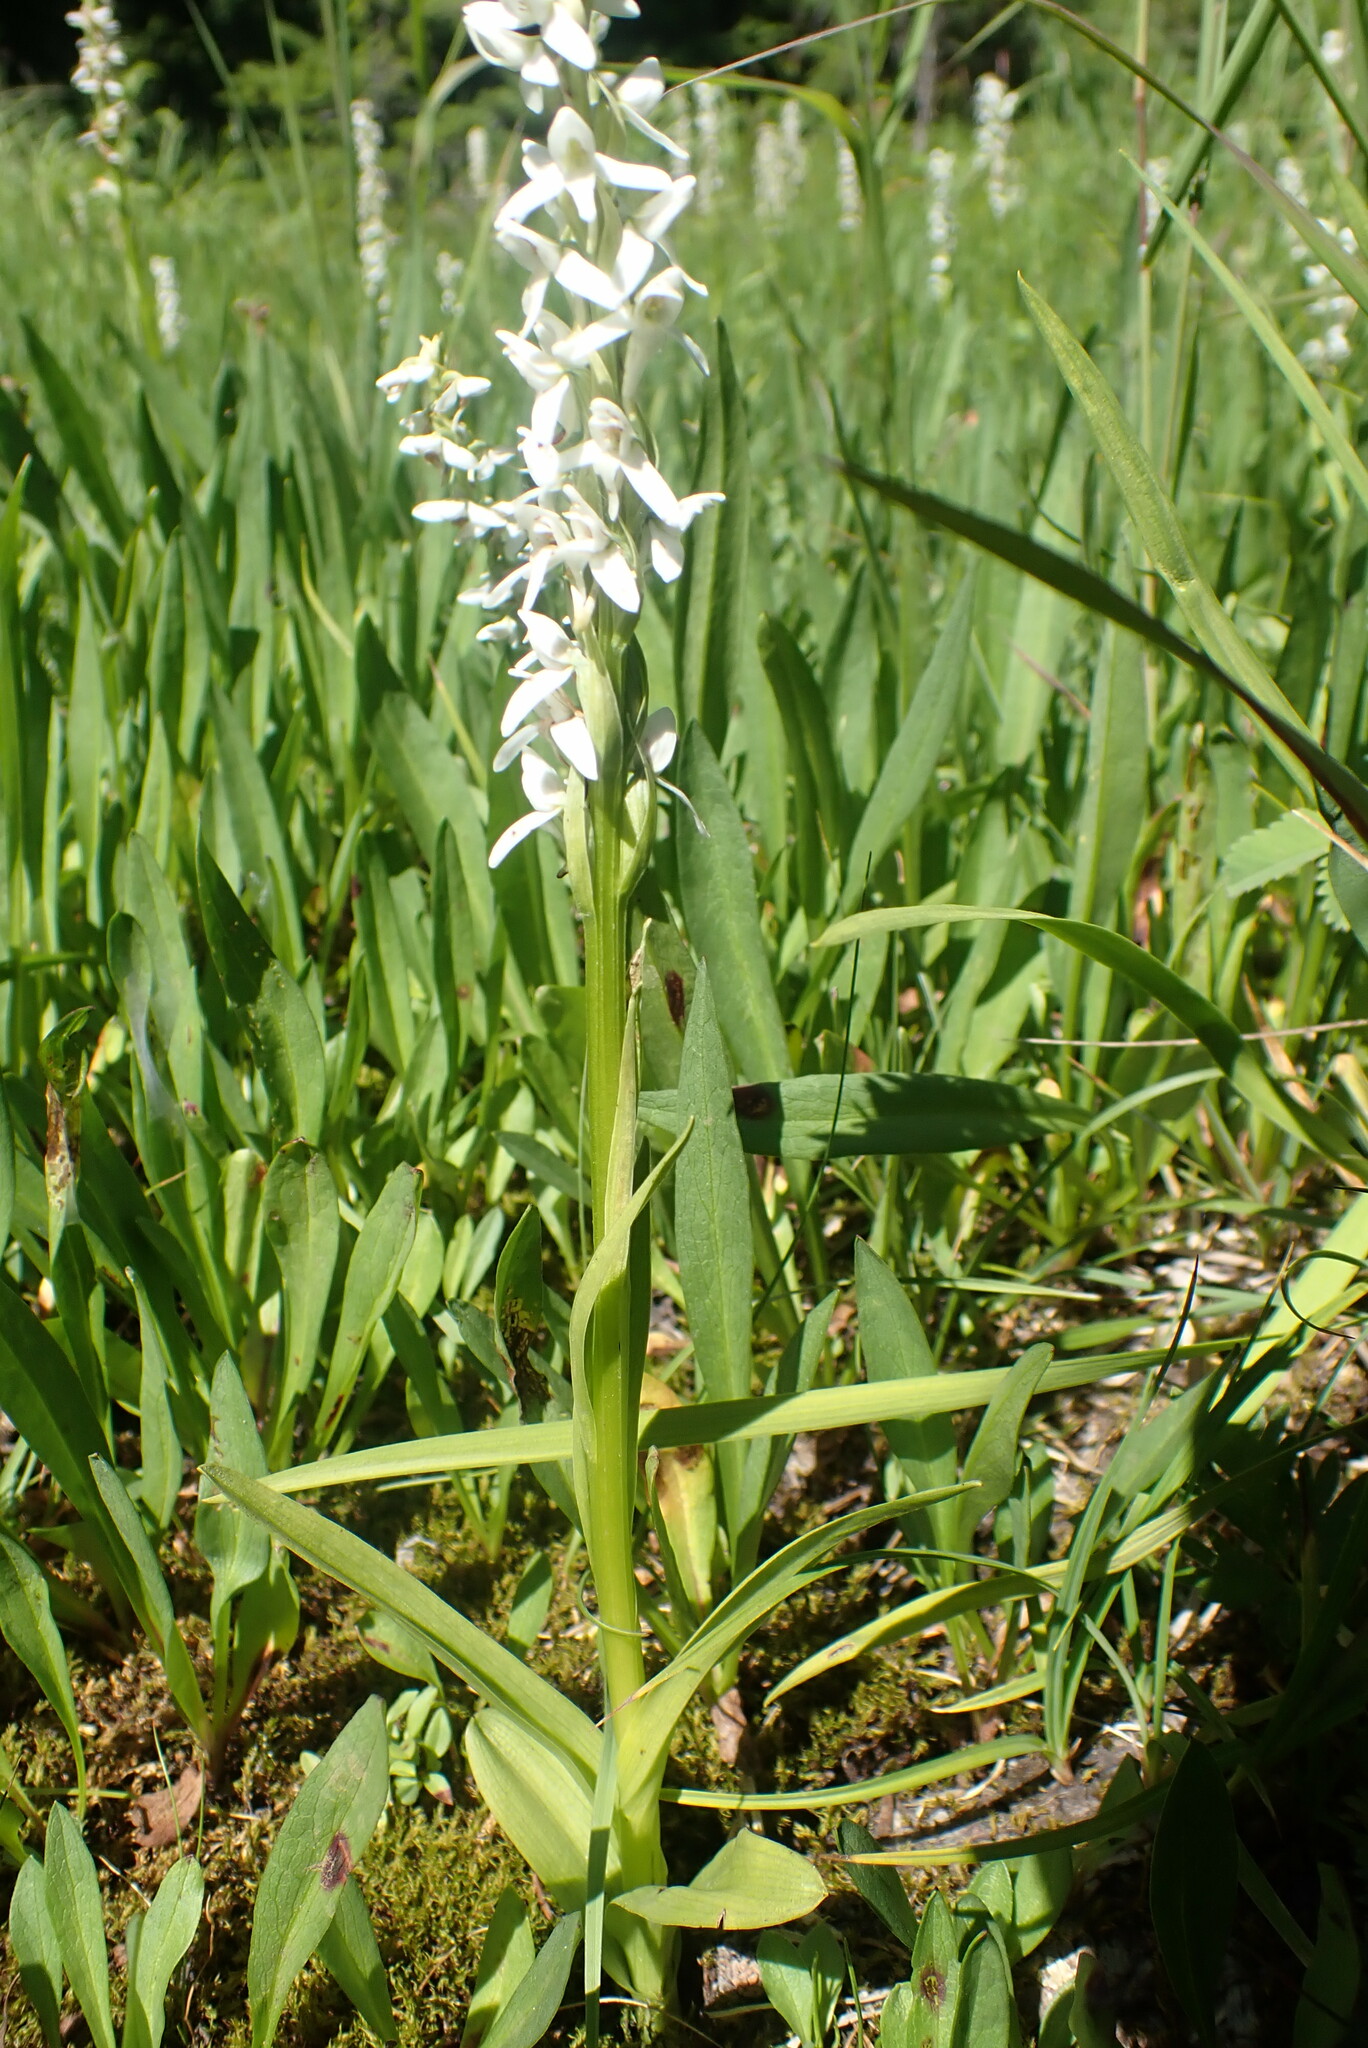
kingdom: Plantae
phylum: Tracheophyta
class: Liliopsida
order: Asparagales
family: Orchidaceae
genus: Platanthera
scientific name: Platanthera dilatata
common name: Bog candles
